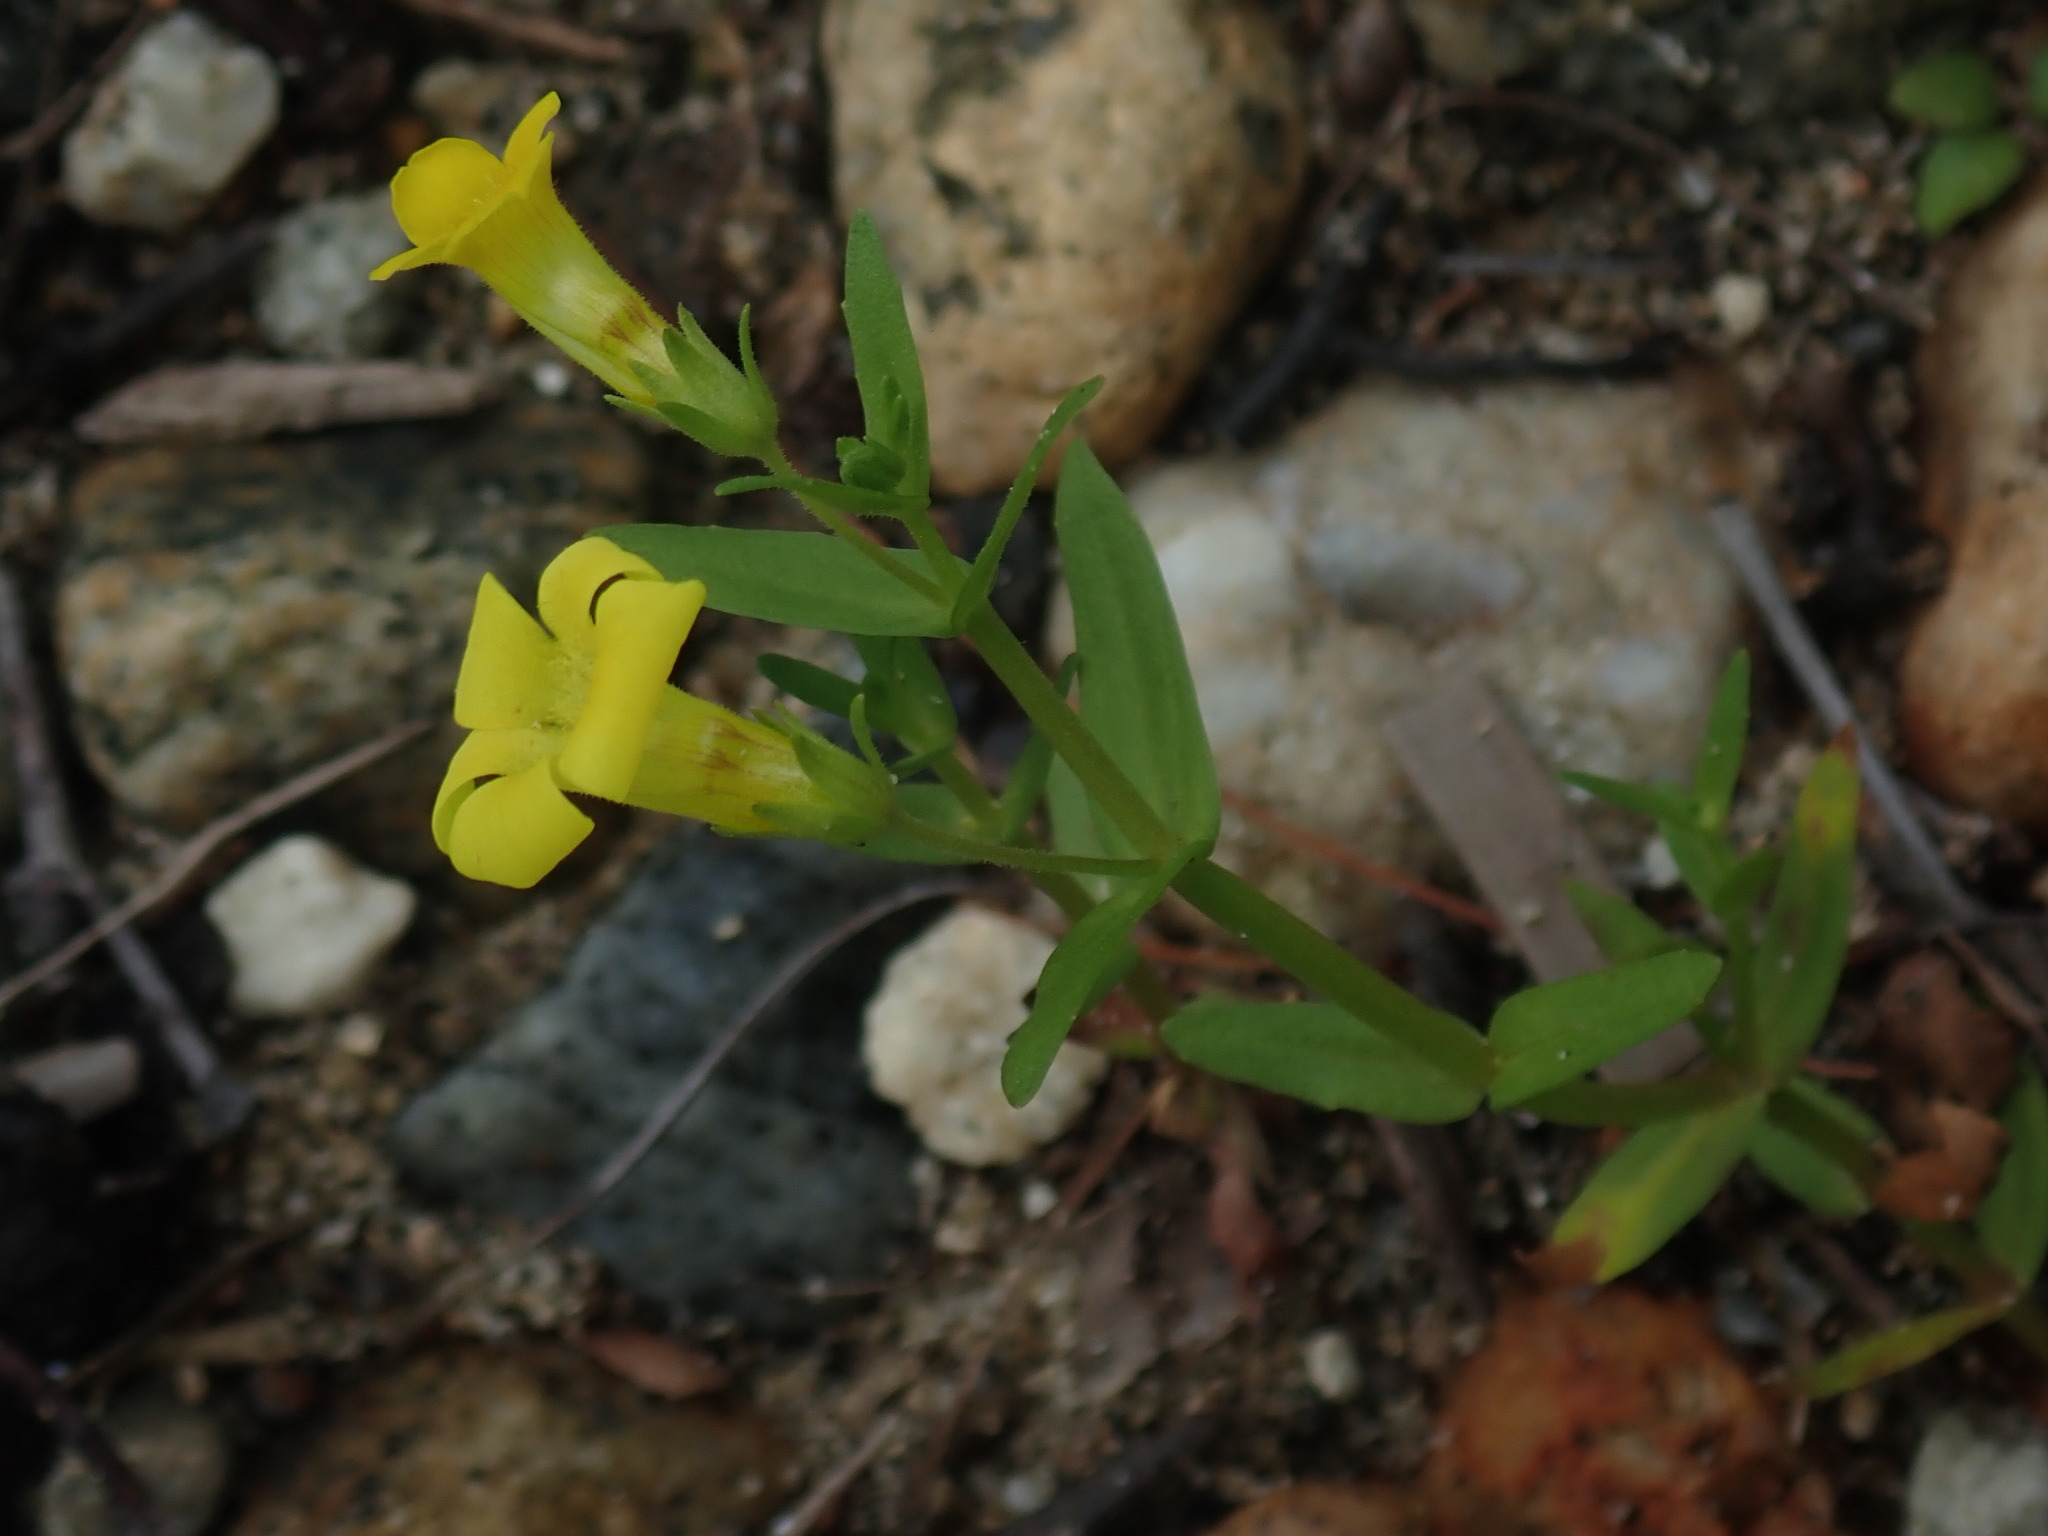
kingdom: Plantae
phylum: Tracheophyta
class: Magnoliopsida
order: Lamiales
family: Plantaginaceae
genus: Gratiola
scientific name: Gratiola lutea
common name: Golden hedge-hyssop
